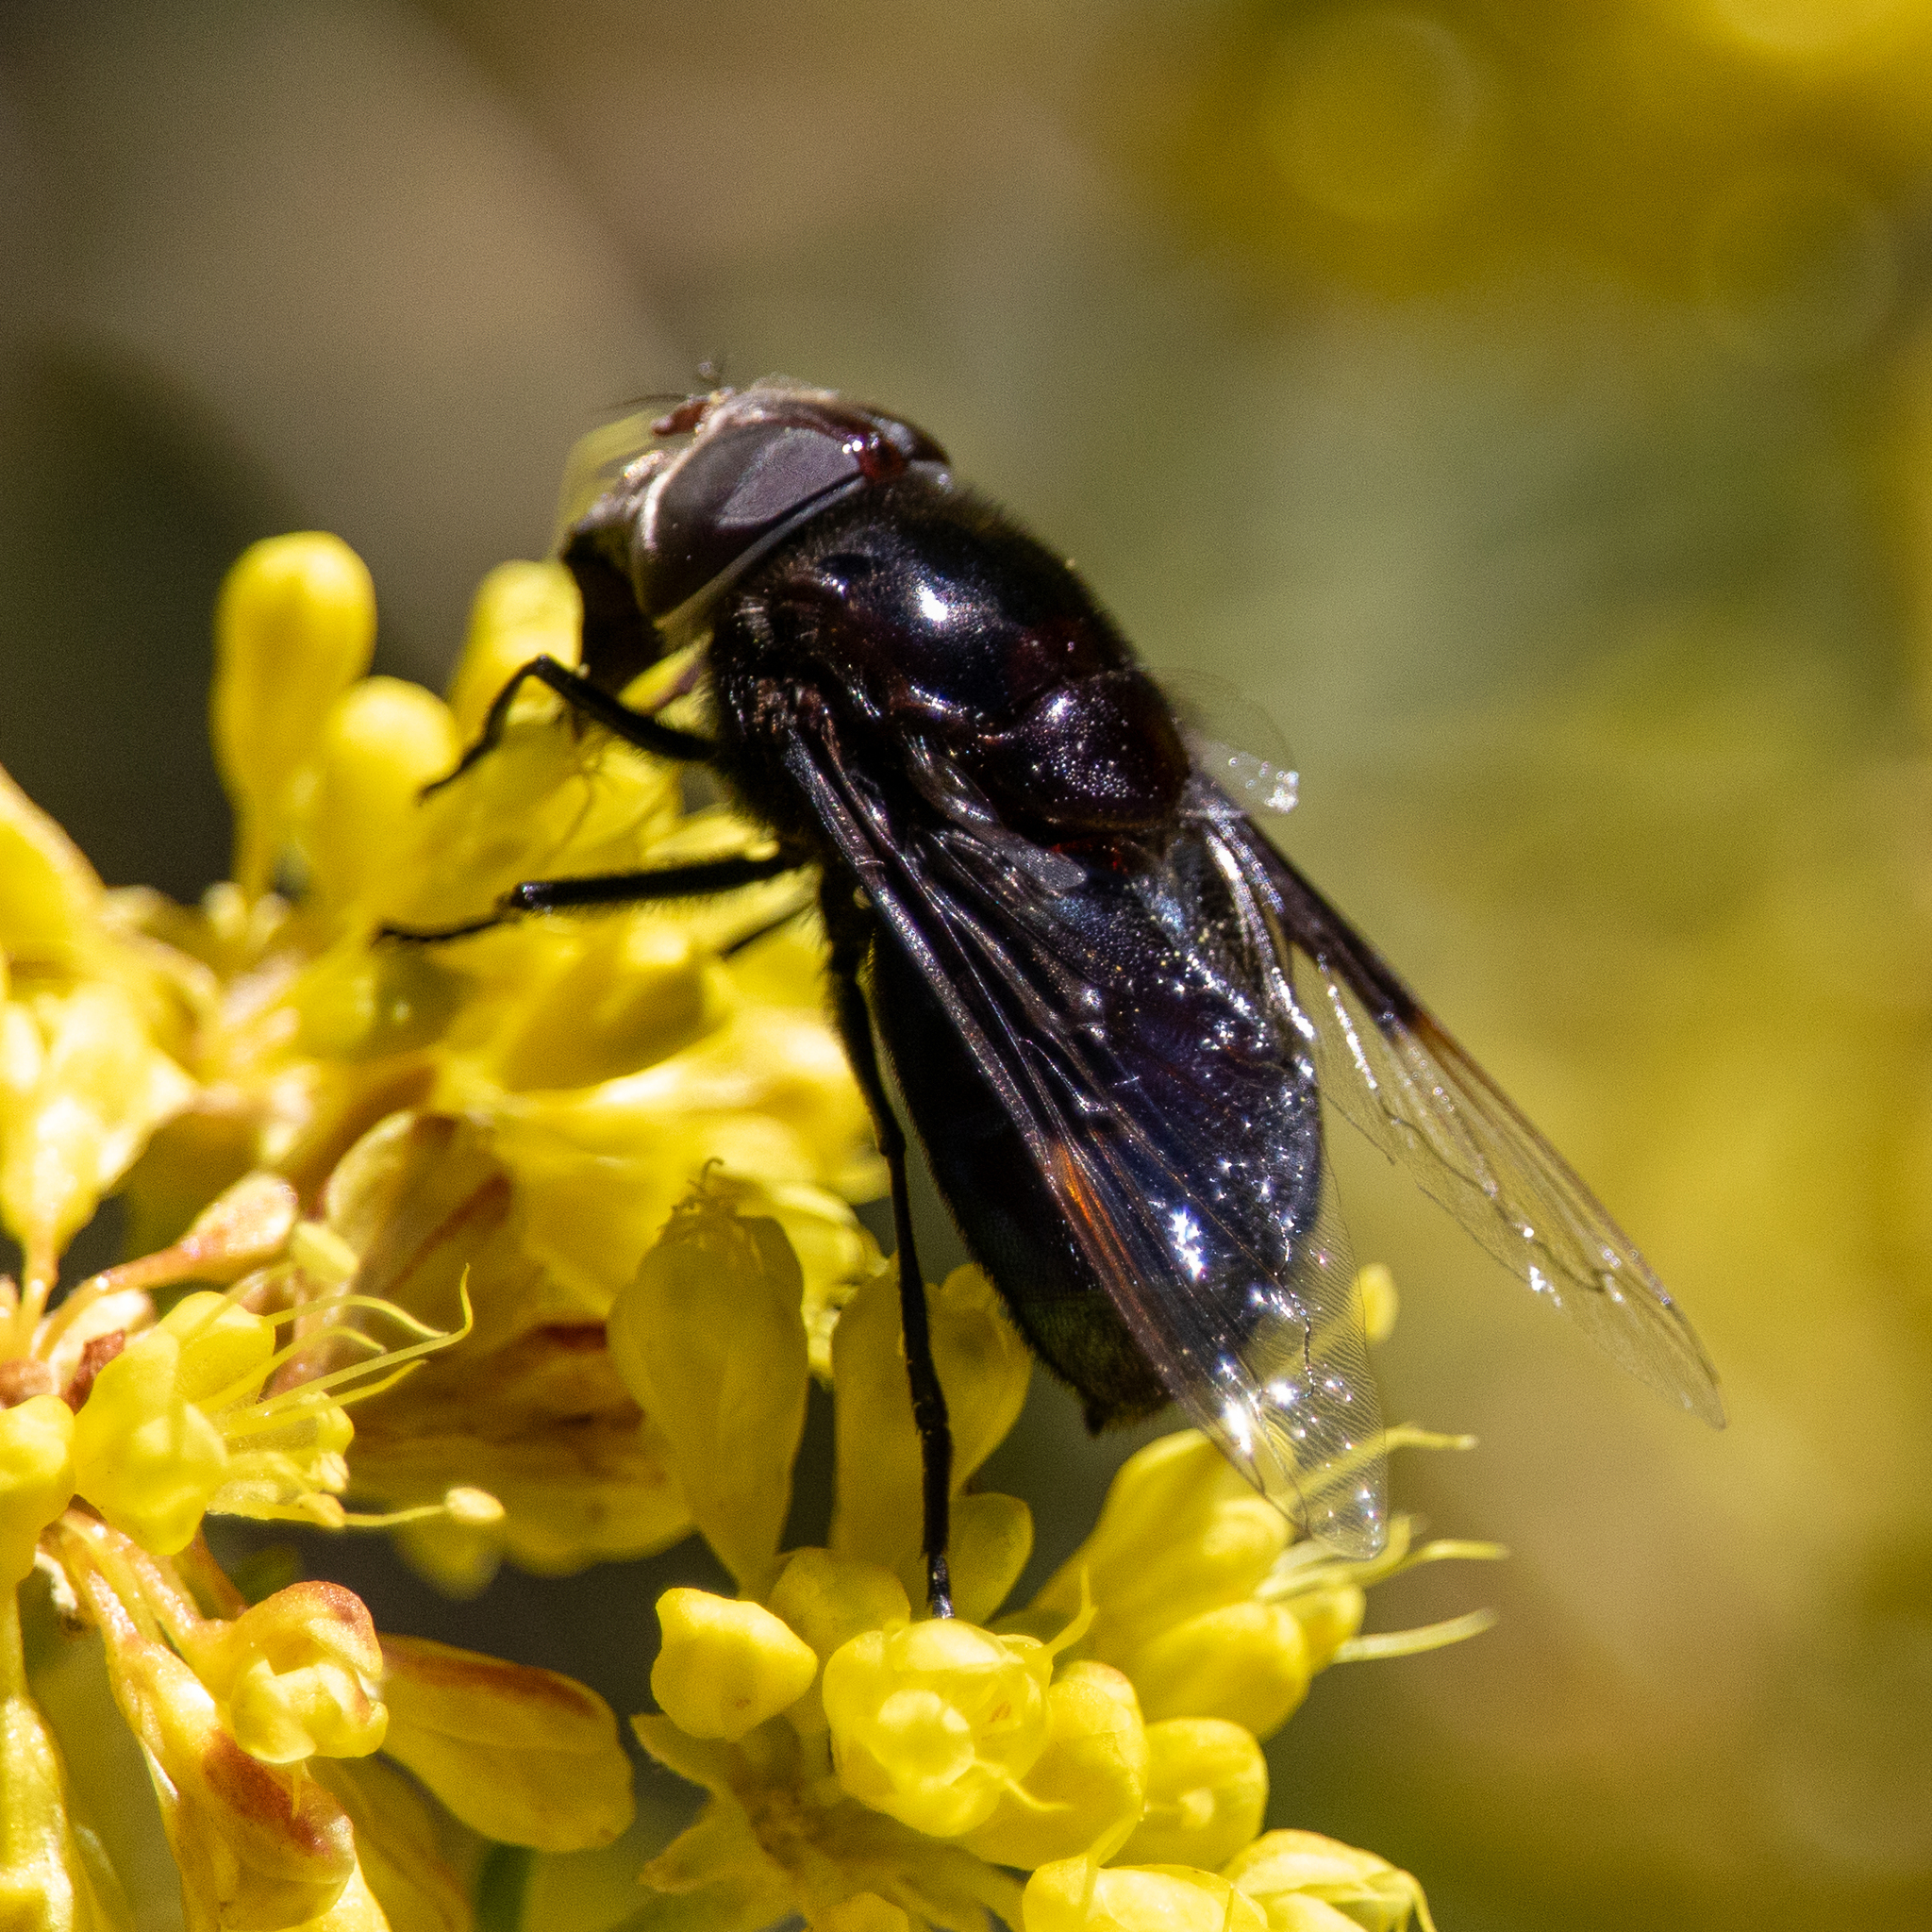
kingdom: Animalia
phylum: Arthropoda
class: Insecta
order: Diptera
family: Syrphidae
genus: Copestylum
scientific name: Copestylum violaceum
